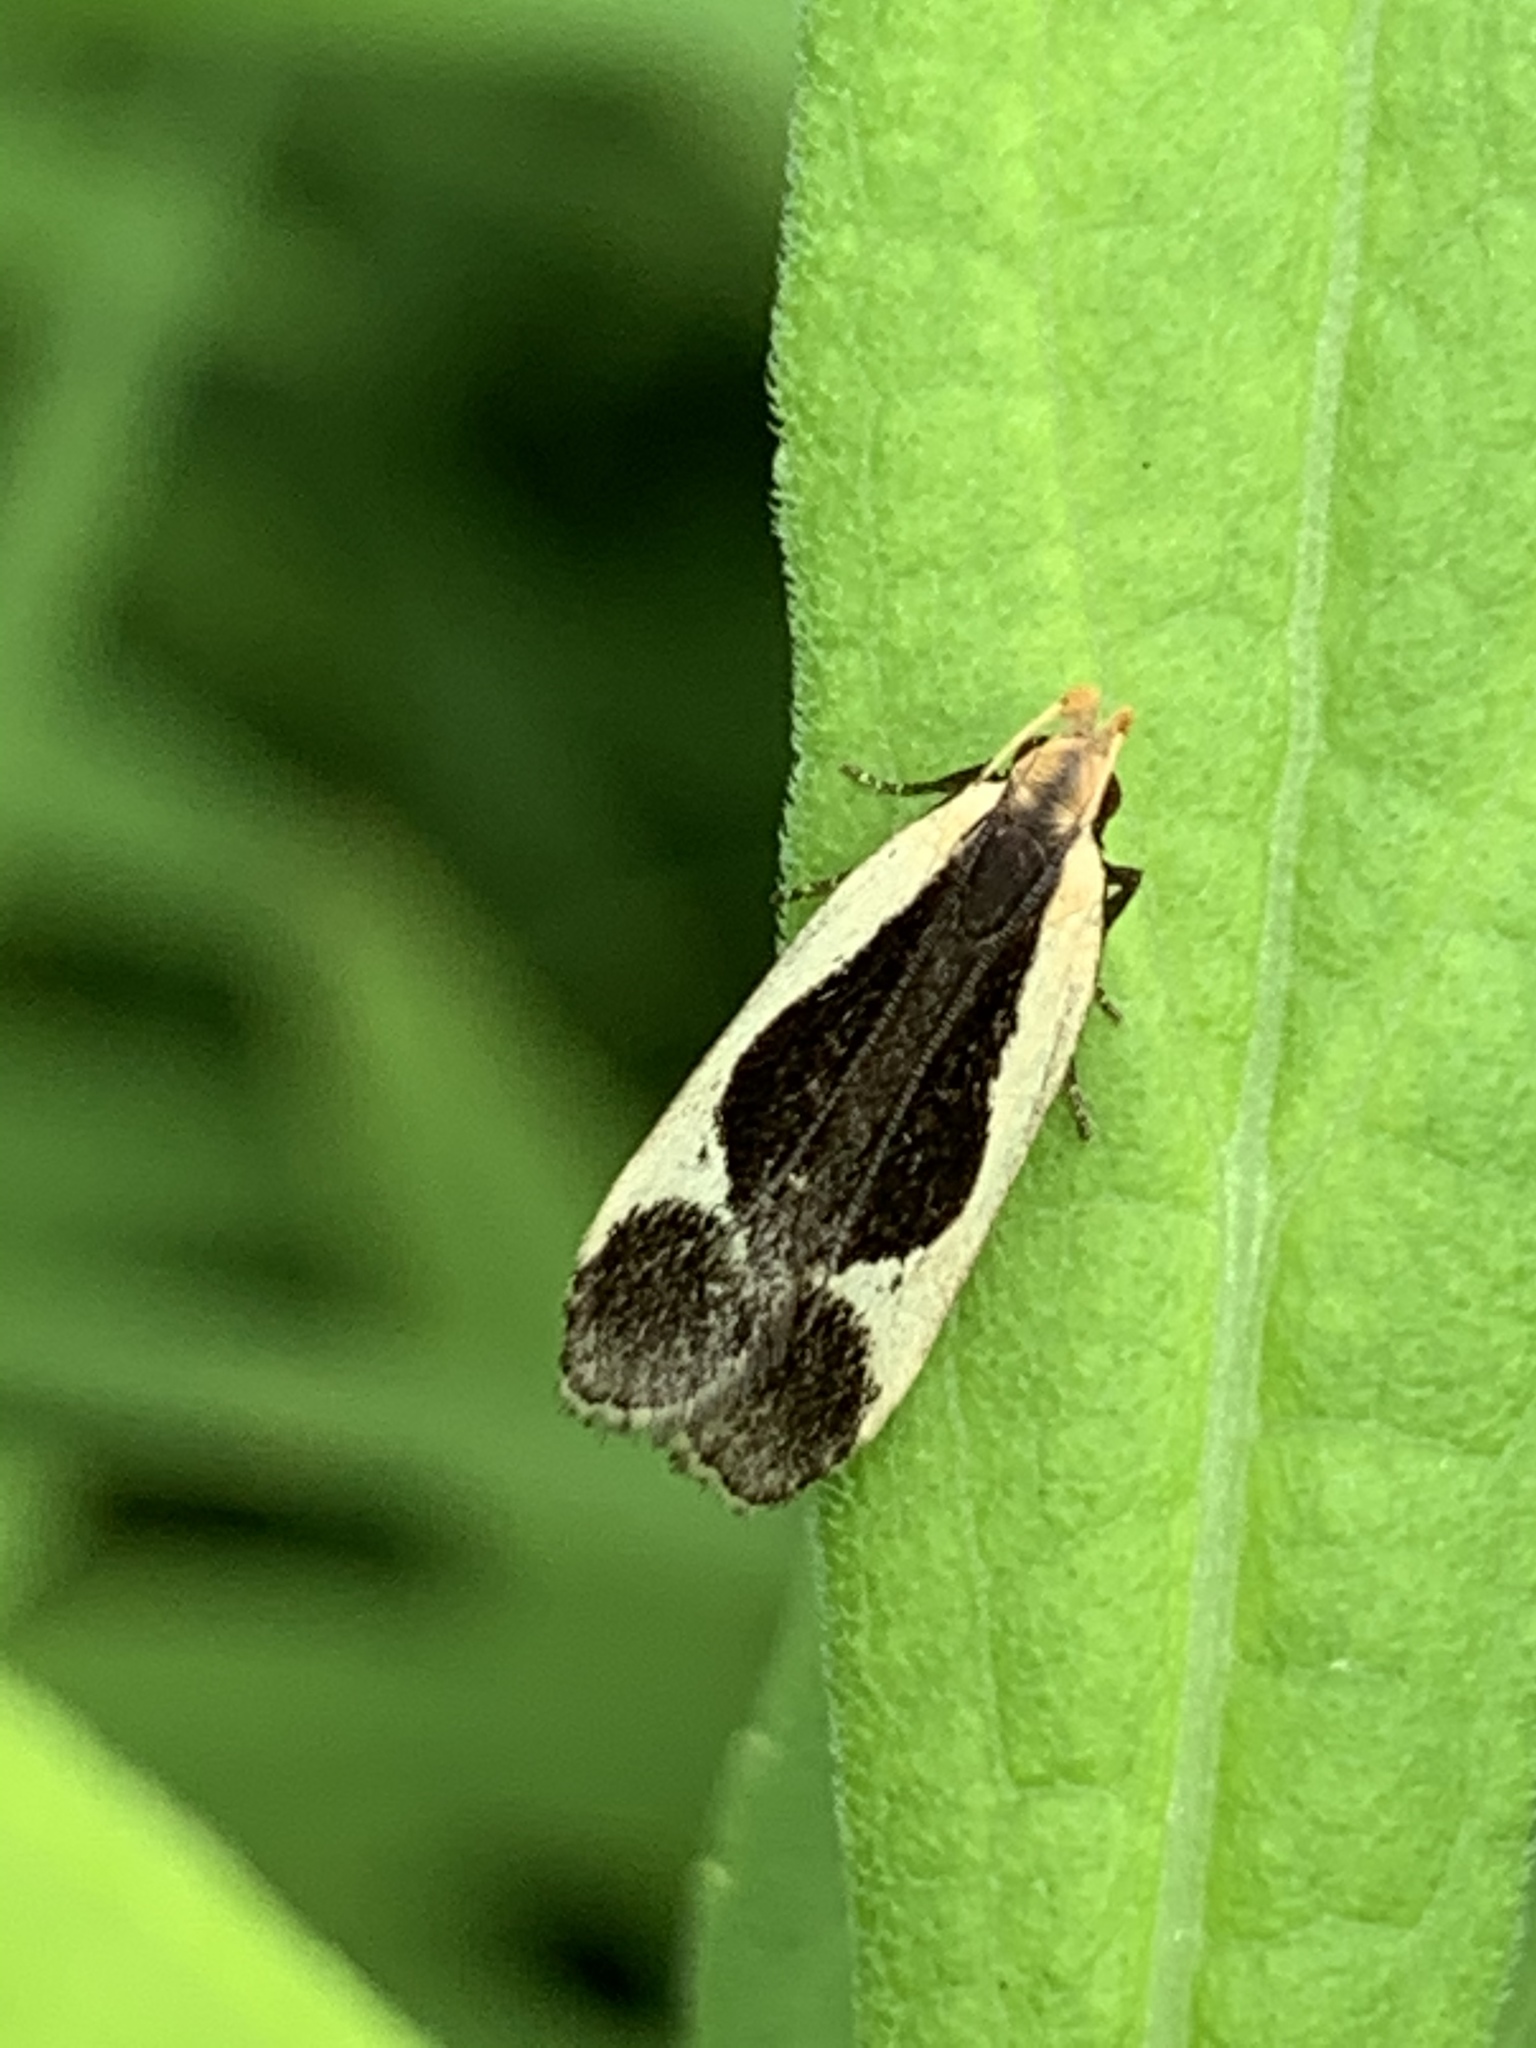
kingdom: Animalia
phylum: Arthropoda
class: Insecta
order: Lepidoptera
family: Gelechiidae
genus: Dichomeris
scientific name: Dichomeris flavocostella
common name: Cream-edged dichomeris moth
